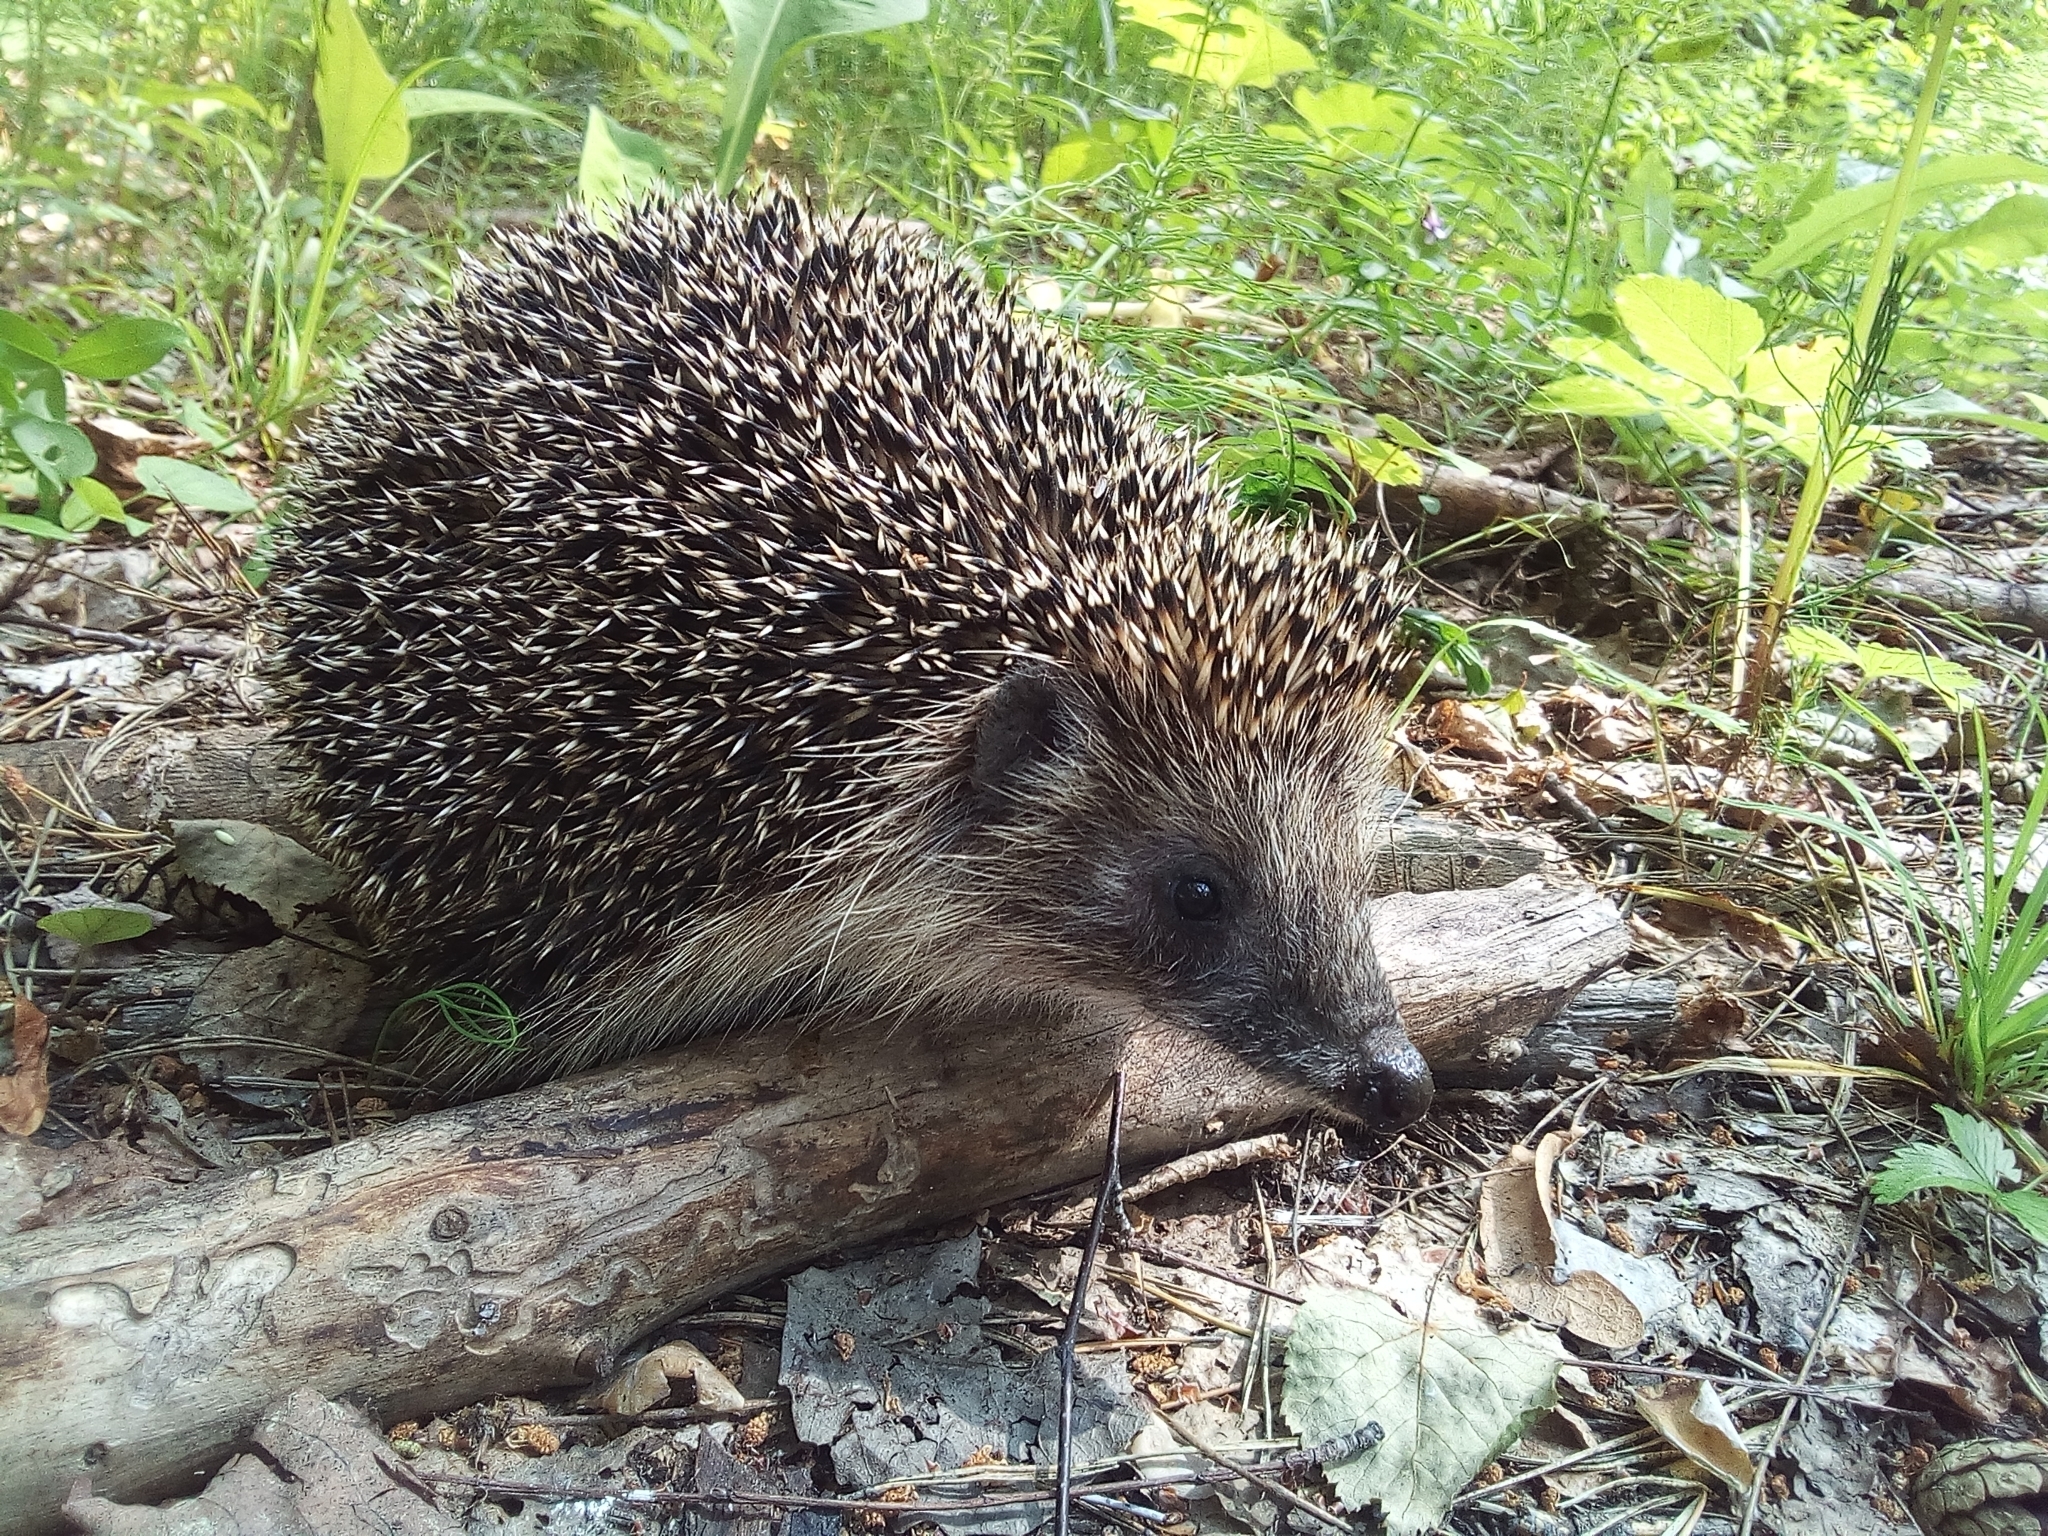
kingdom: Animalia
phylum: Chordata
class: Mammalia
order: Erinaceomorpha
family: Erinaceidae
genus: Erinaceus
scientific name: Erinaceus roumanicus
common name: Northern white-breasted hedgehog
